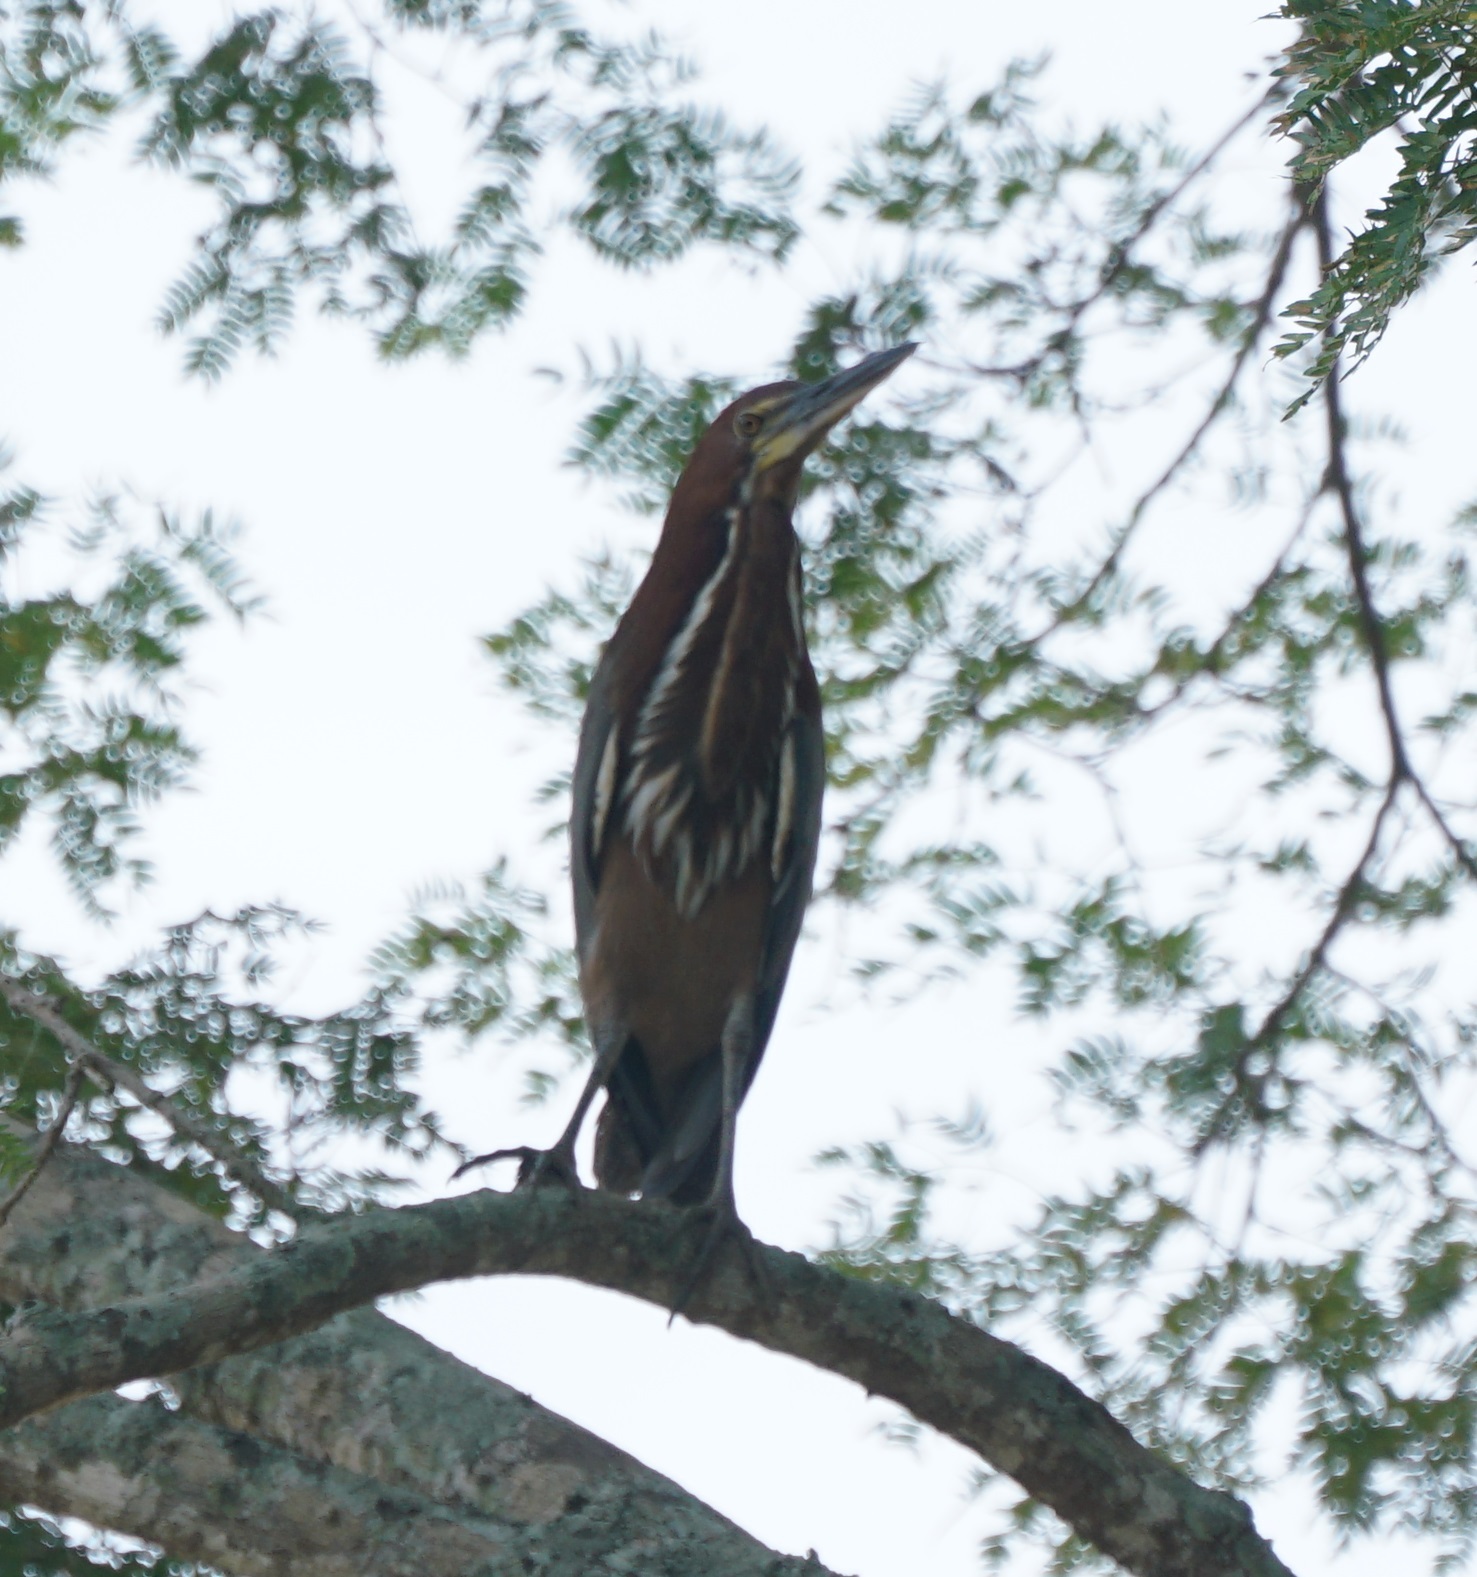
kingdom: Animalia
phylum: Chordata
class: Aves
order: Pelecaniformes
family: Ardeidae
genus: Tigrisoma
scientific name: Tigrisoma lineatum
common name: Rufescent tiger-heron
